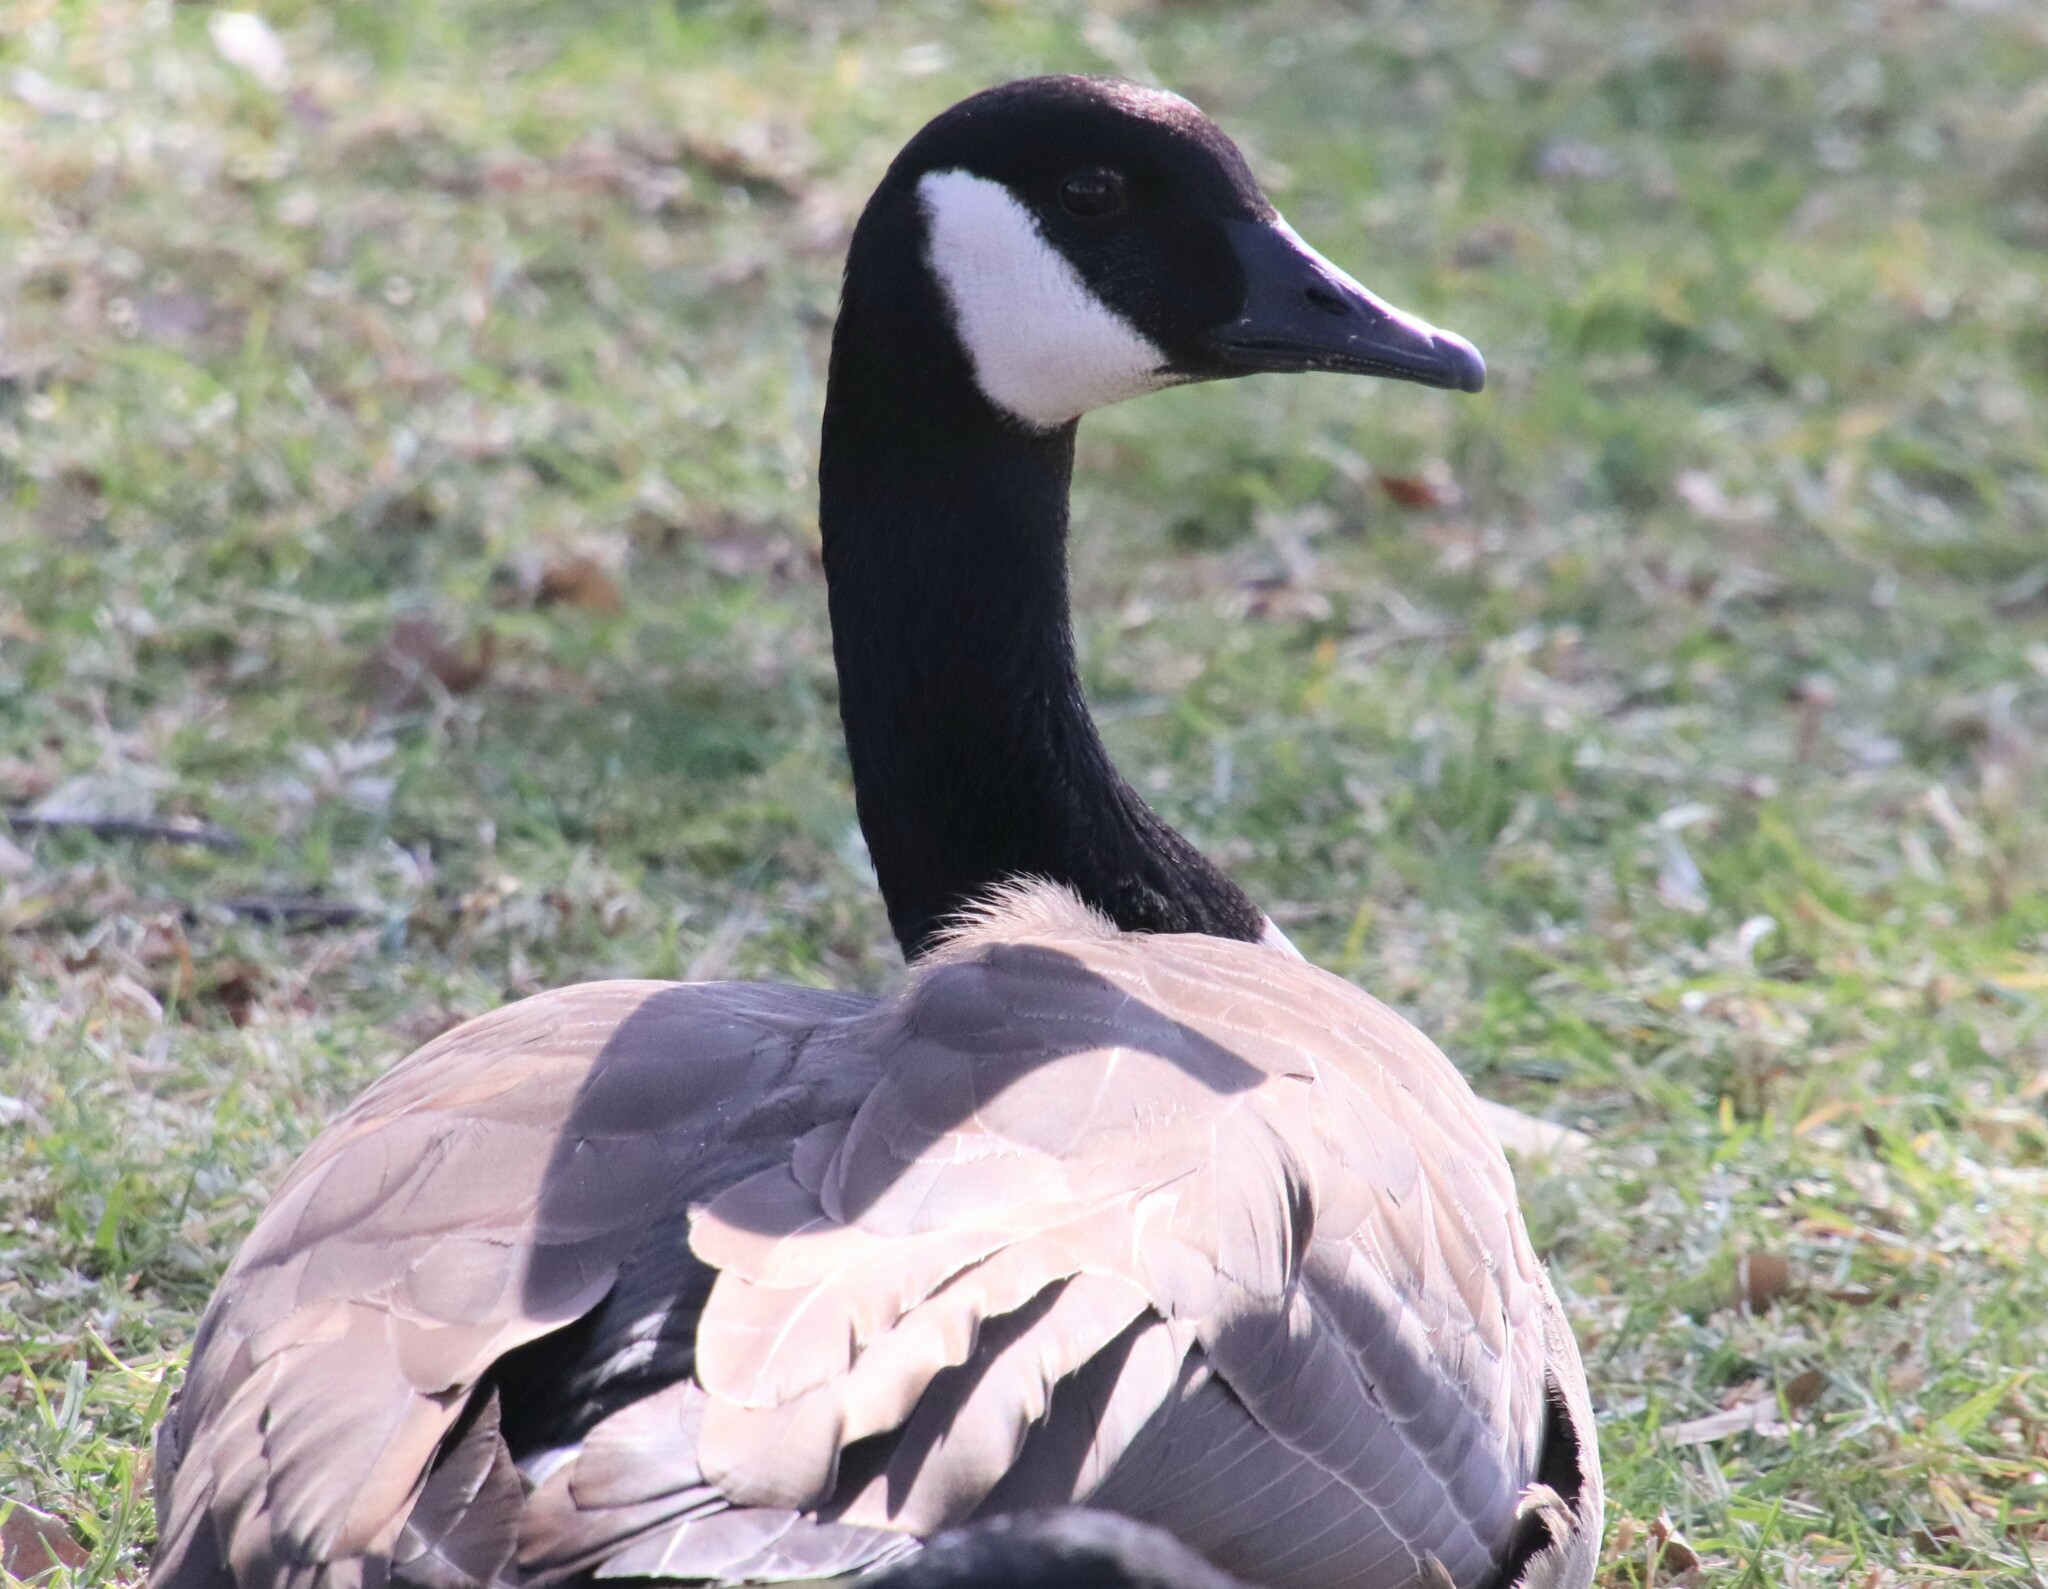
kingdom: Animalia
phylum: Chordata
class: Aves
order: Anseriformes
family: Anatidae
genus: Branta
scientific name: Branta canadensis
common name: Canada goose
